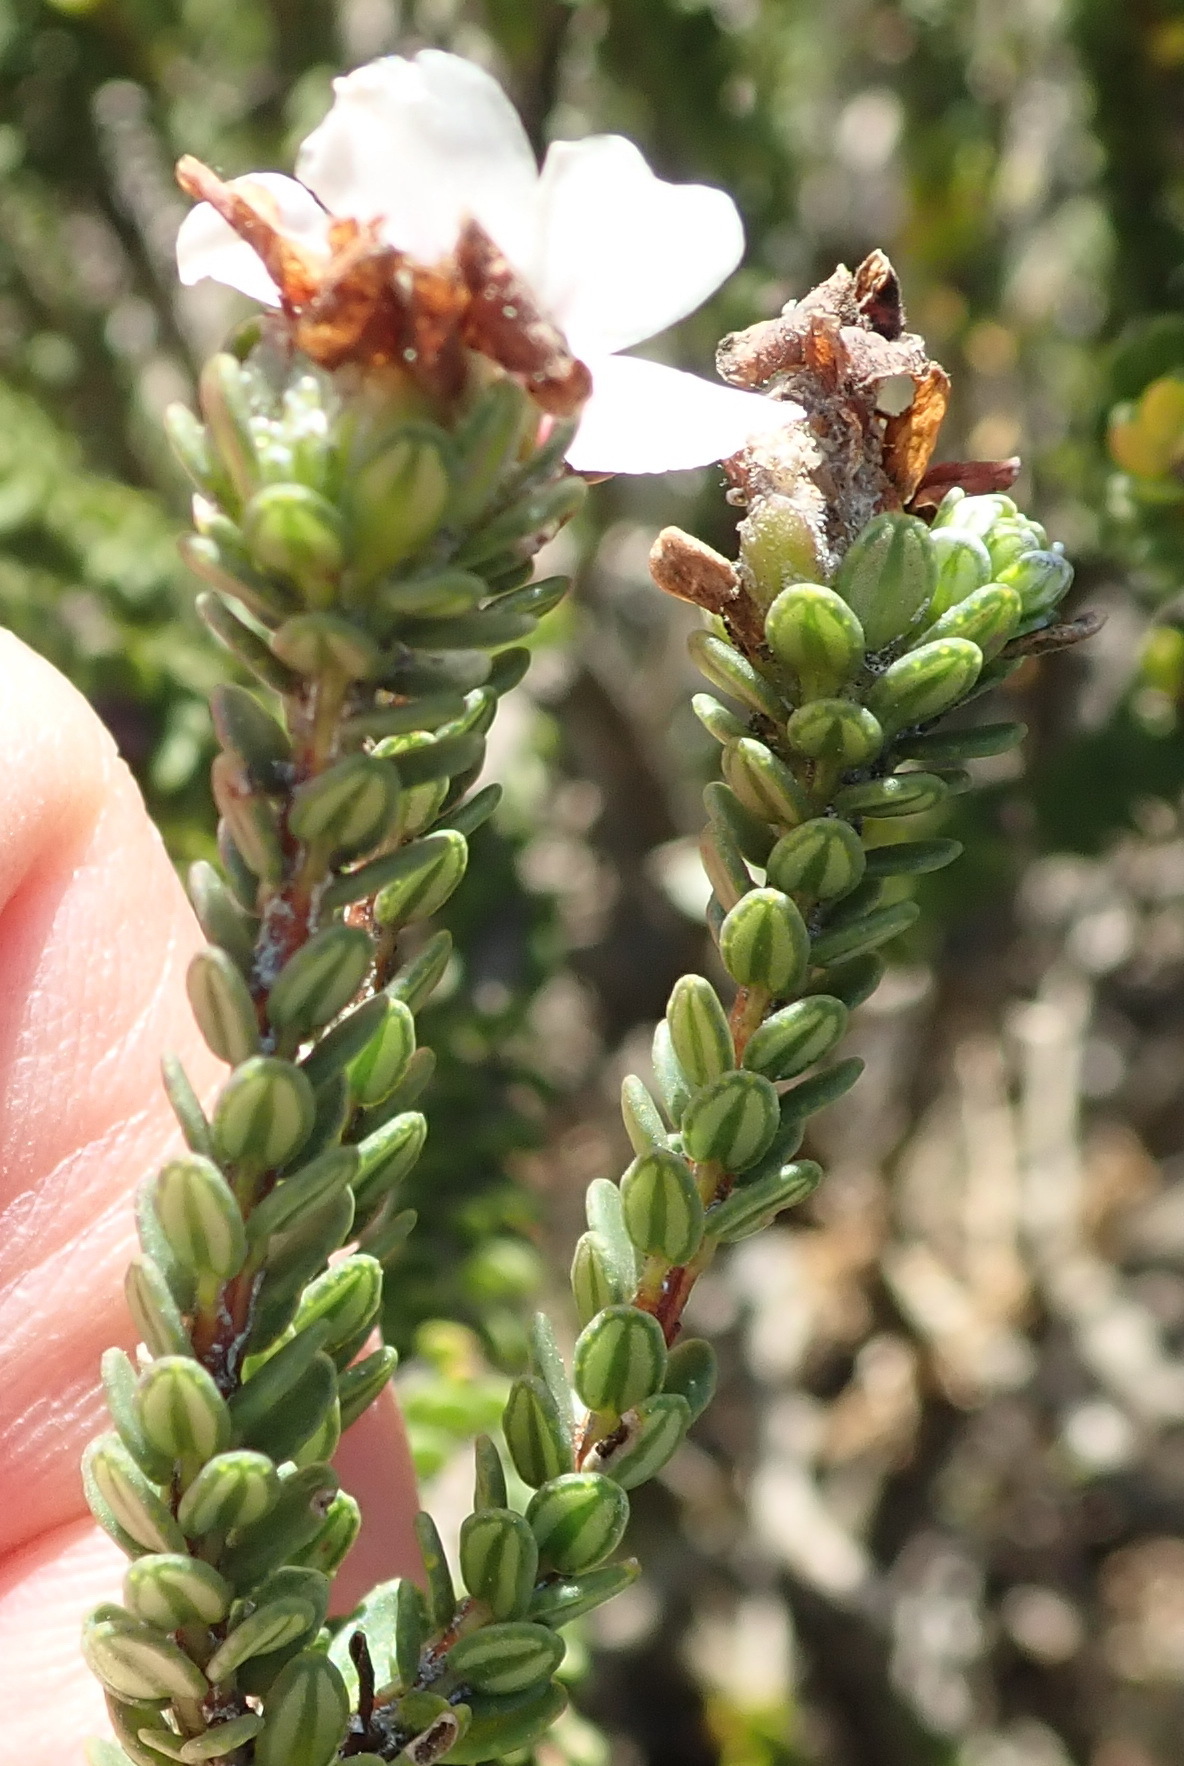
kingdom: Plantae
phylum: Tracheophyta
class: Magnoliopsida
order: Sapindales
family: Rutaceae
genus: Adenandra
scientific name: Adenandra viscida
